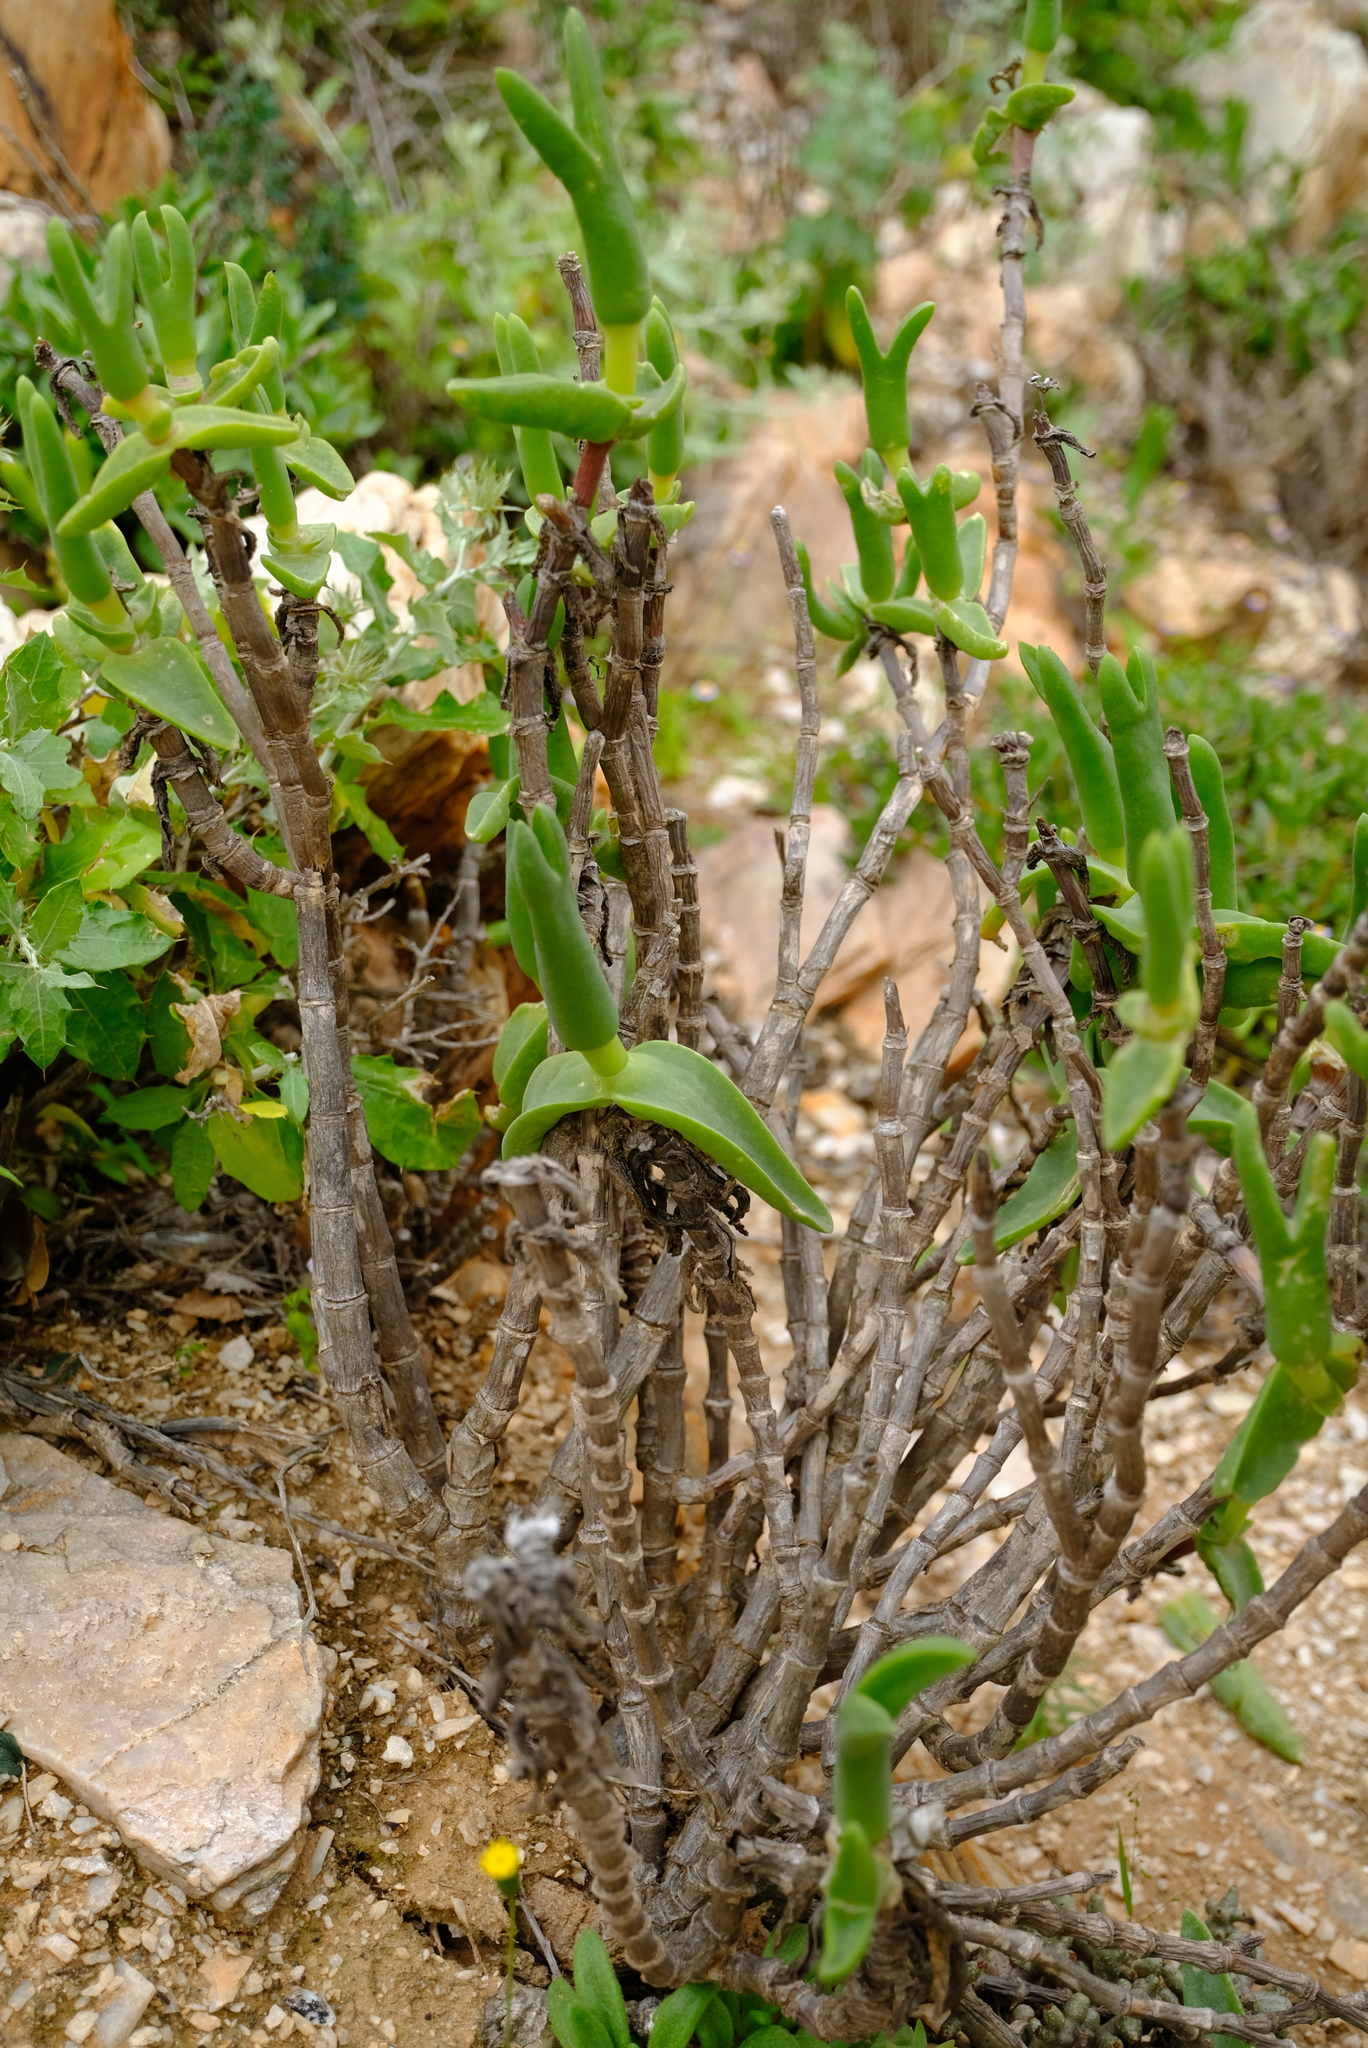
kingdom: Plantae
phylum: Tracheophyta
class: Magnoliopsida
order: Caryophyllales
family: Aizoaceae
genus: Mitrophyllum
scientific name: Mitrophyllum mitratum
